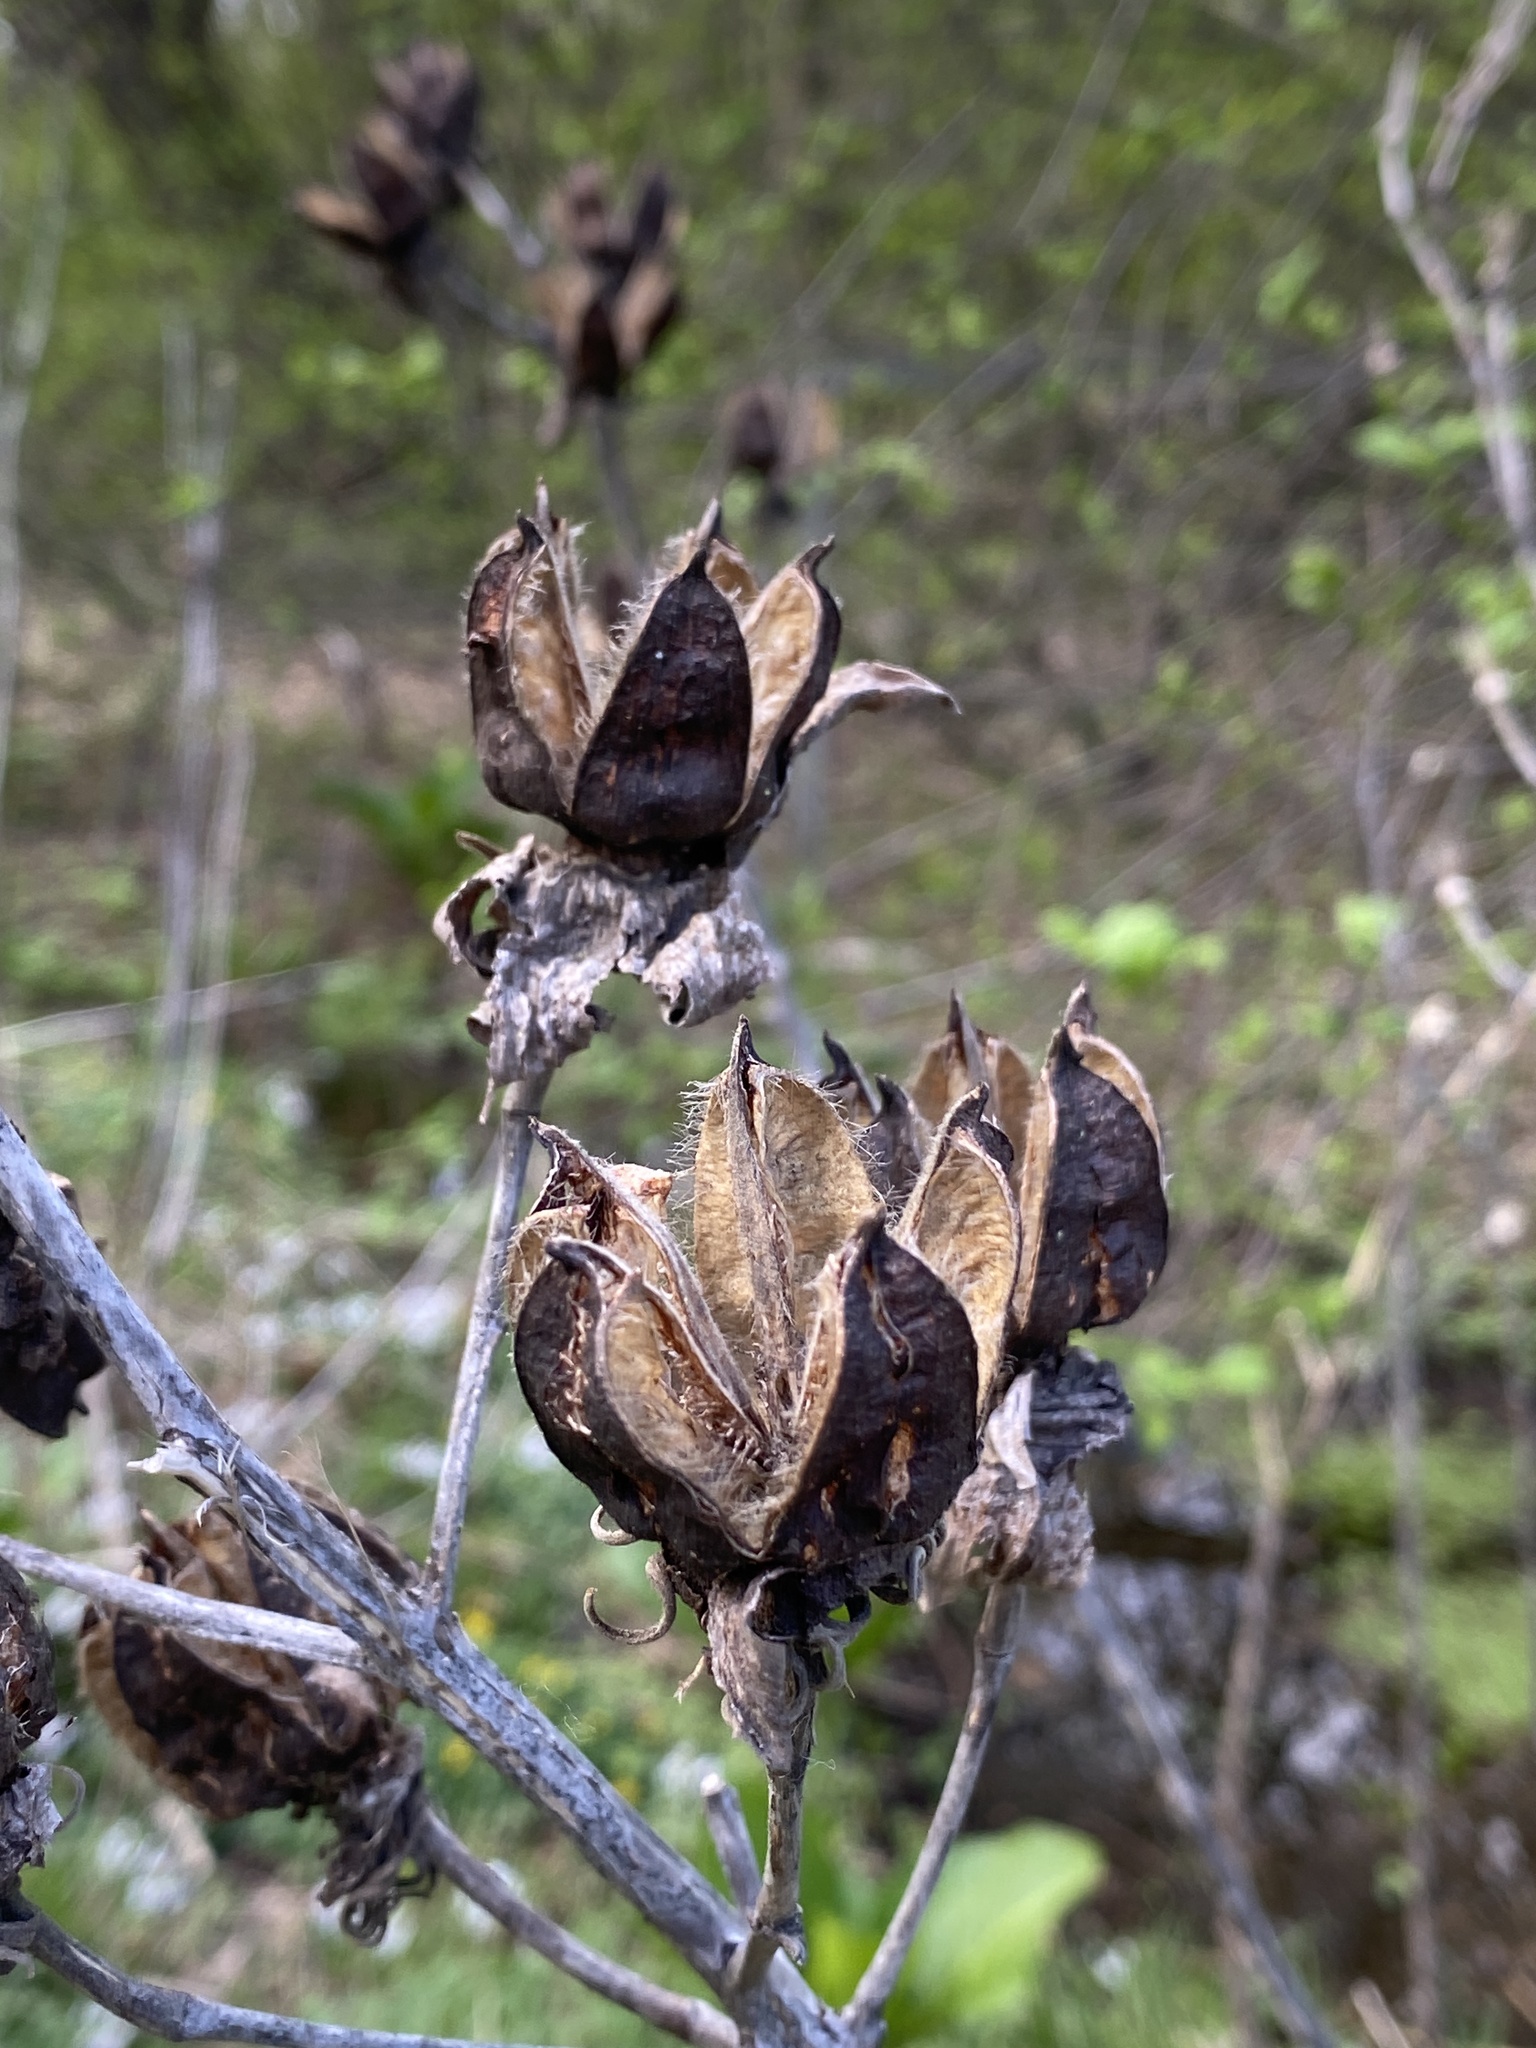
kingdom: Plantae
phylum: Tracheophyta
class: Magnoliopsida
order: Malvales
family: Malvaceae
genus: Hibiscus
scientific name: Hibiscus moscheutos
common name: Common rose-mallow
